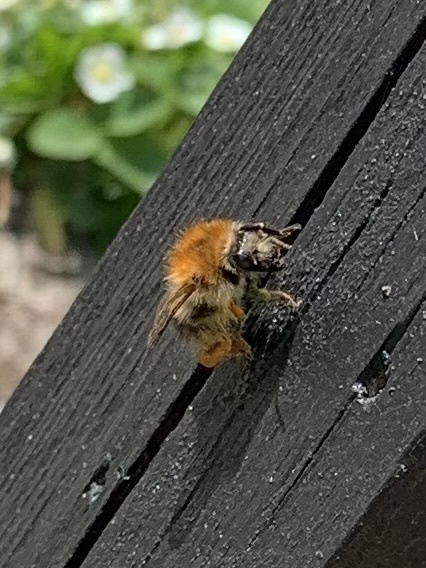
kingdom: Animalia
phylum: Arthropoda
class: Insecta
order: Hymenoptera
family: Apidae
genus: Bombus
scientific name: Bombus pascuorum
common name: Common carder bee
